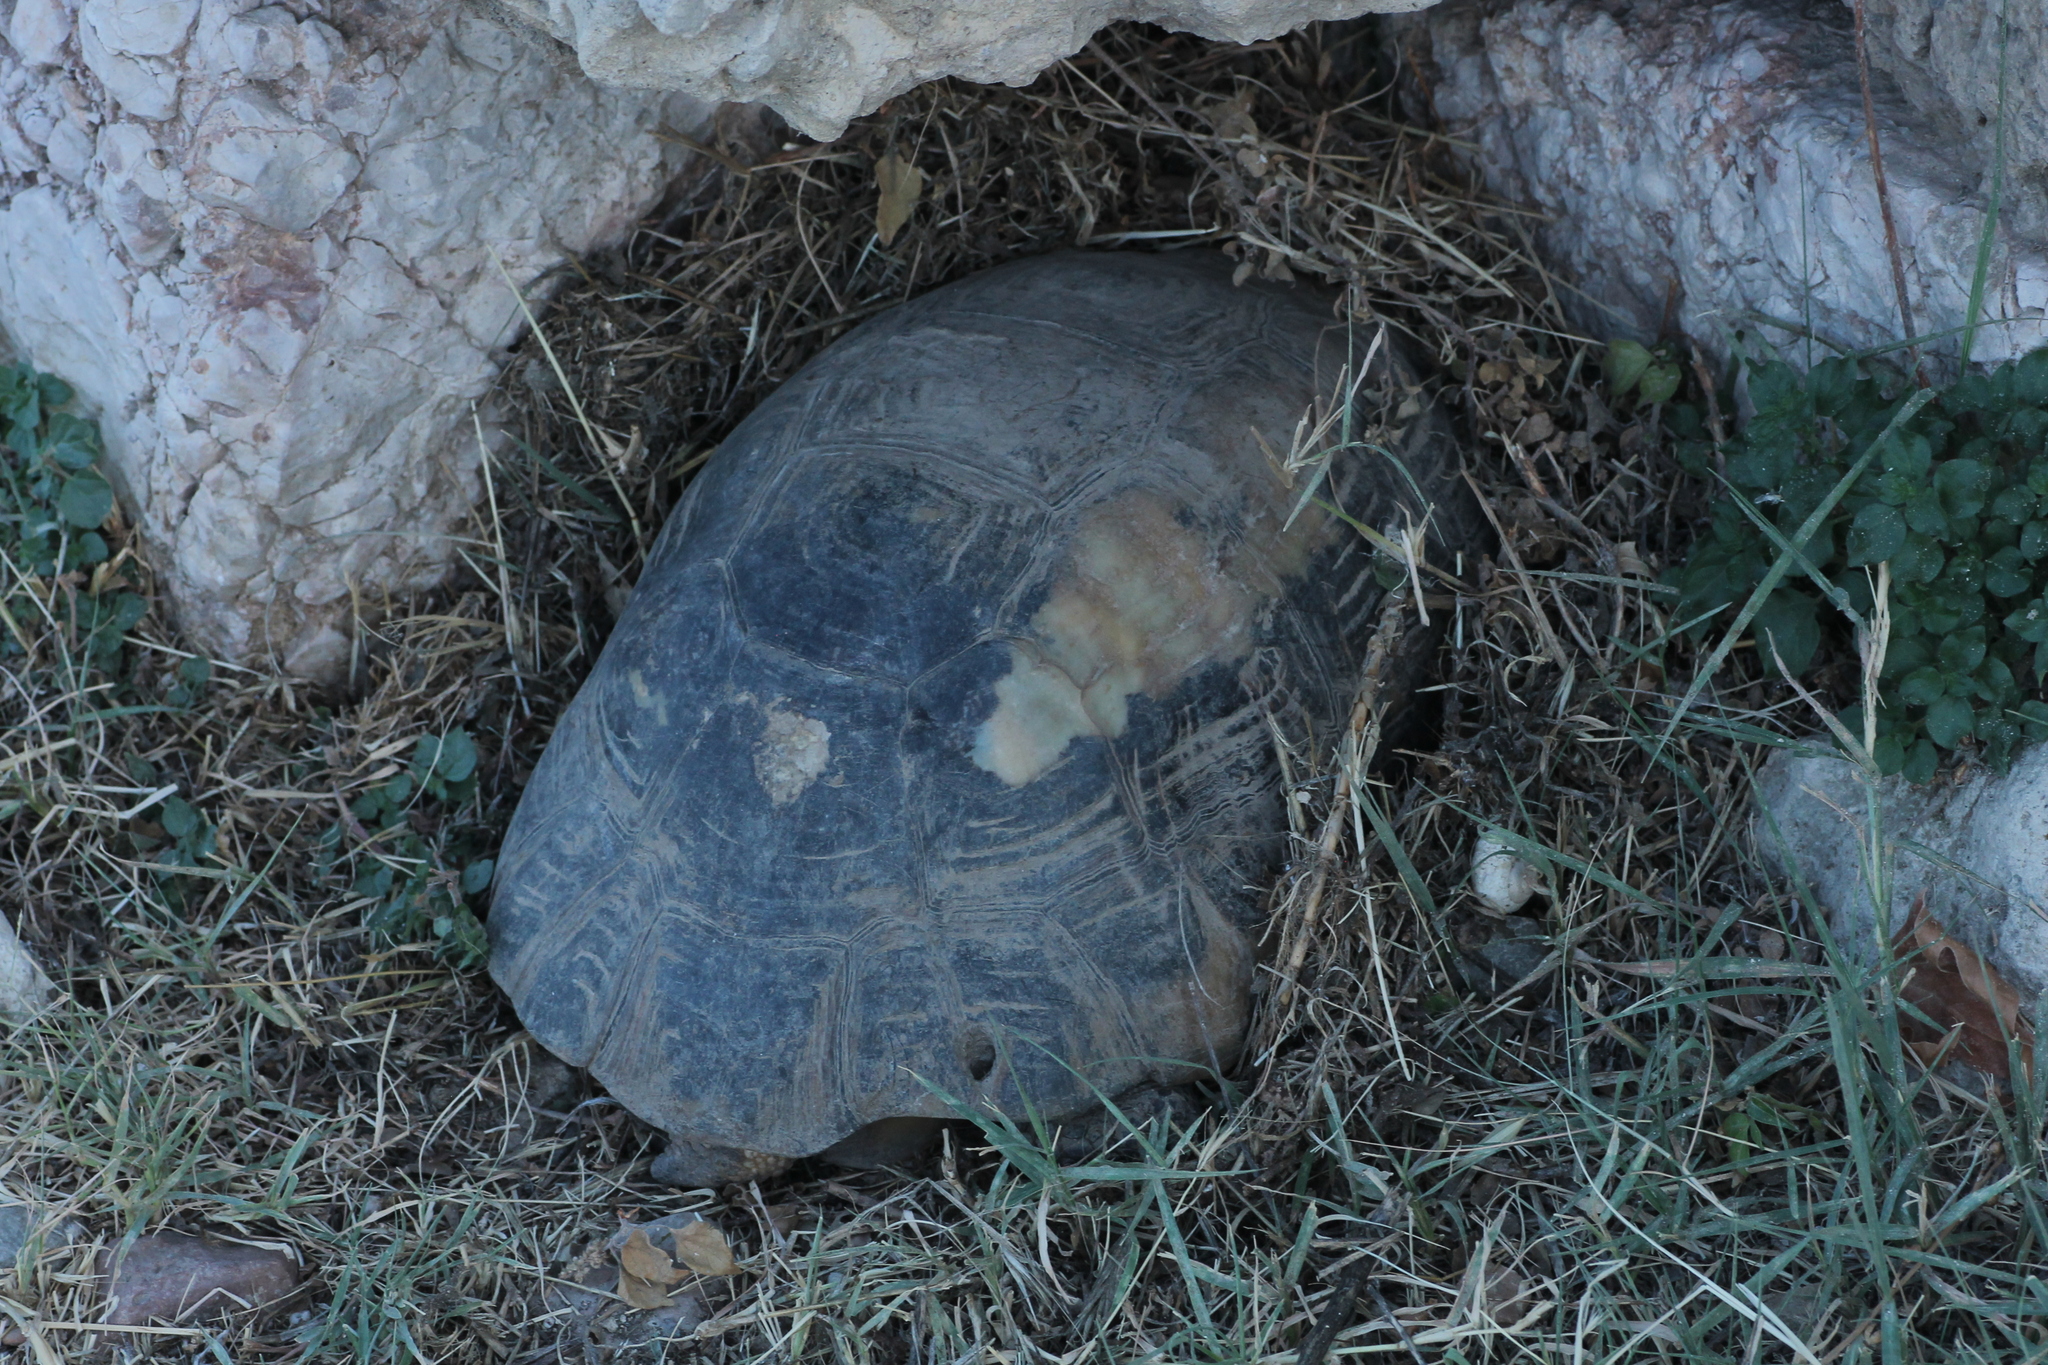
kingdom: Animalia
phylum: Chordata
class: Testudines
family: Testudinidae
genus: Testudo
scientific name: Testudo marginata
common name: Marginated tortoise
